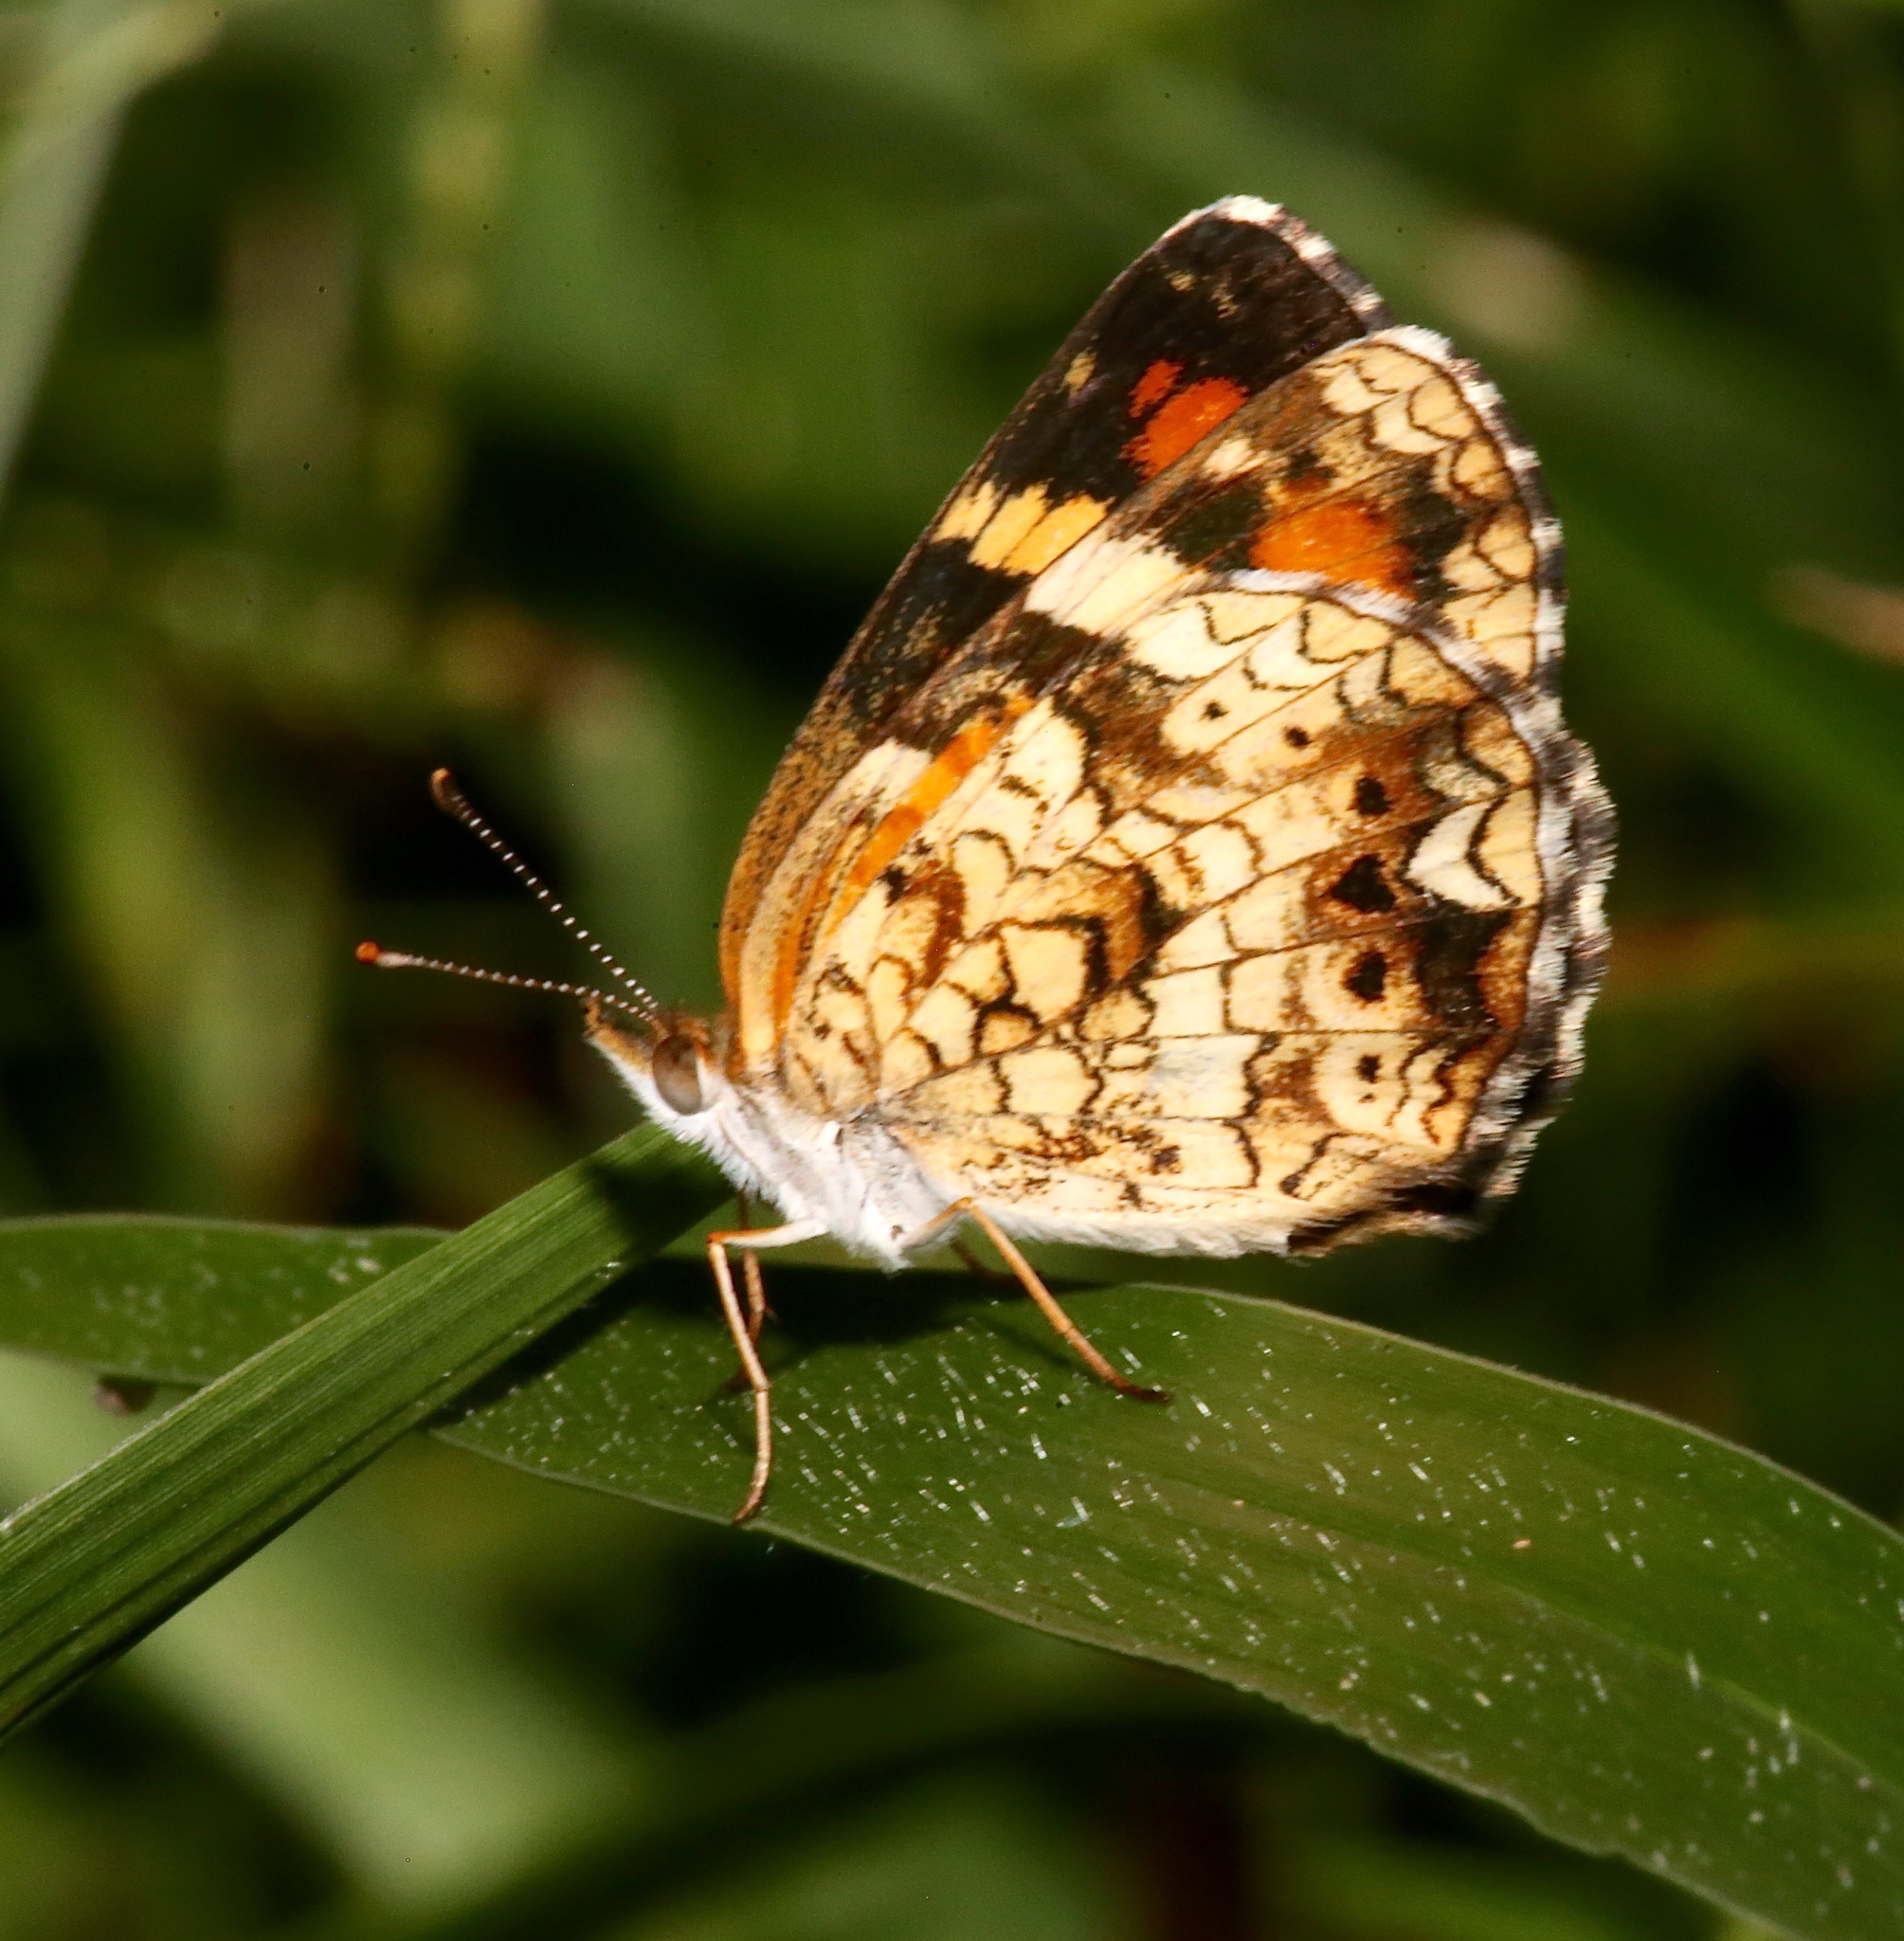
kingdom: Animalia
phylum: Arthropoda
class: Insecta
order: Lepidoptera
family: Nymphalidae
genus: Phyciodes
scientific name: Phyciodes phaon
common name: Phaon crescent
